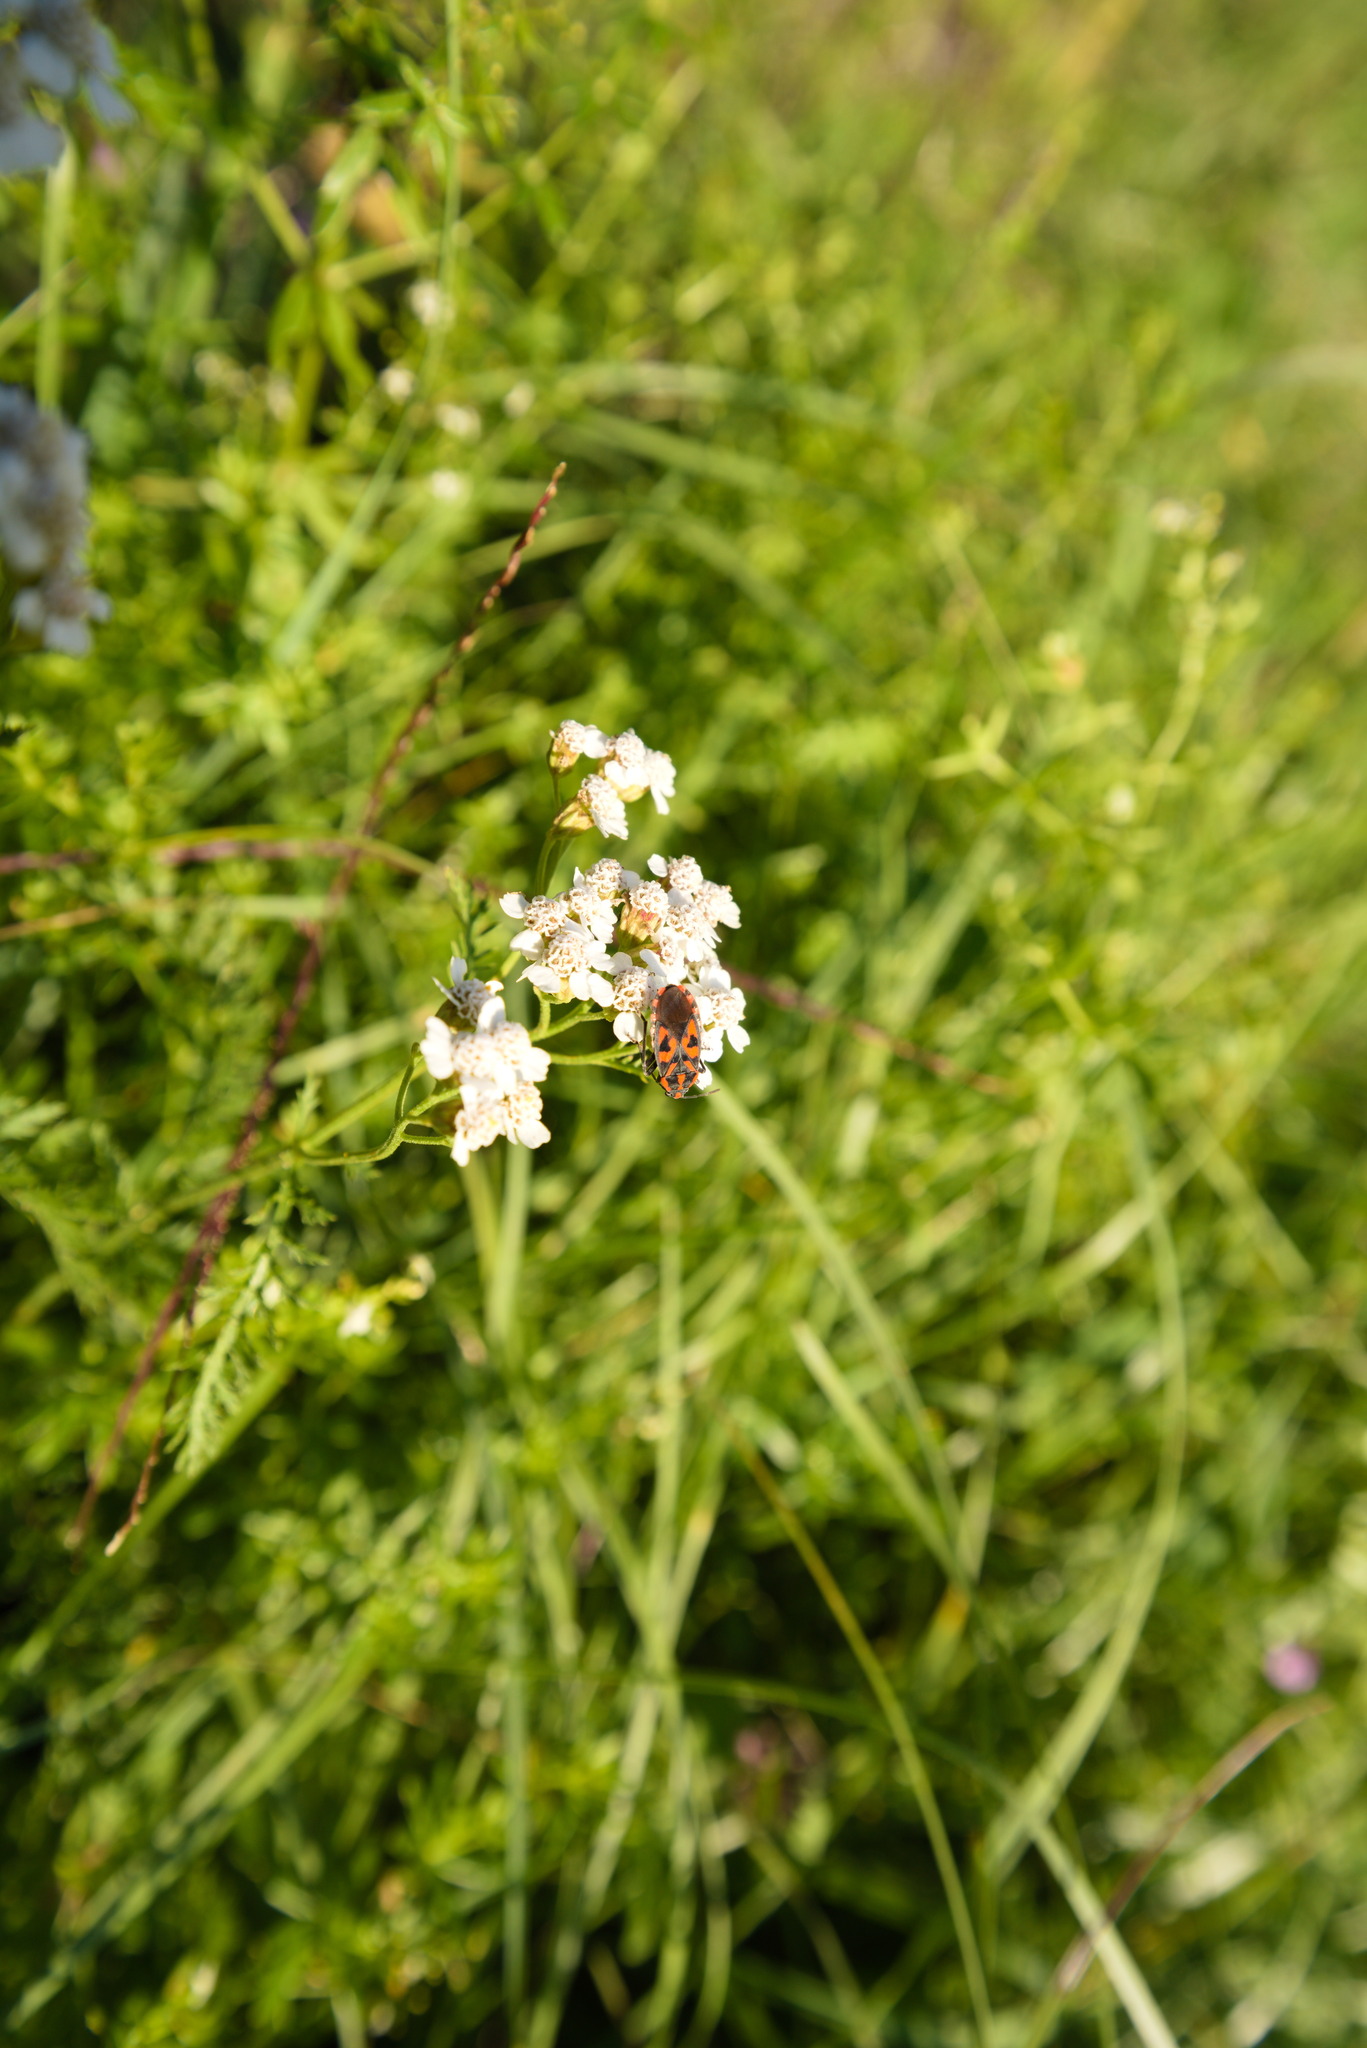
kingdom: Animalia
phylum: Arthropoda
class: Insecta
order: Hemiptera
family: Lygaeidae
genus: Spilostethus
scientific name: Spilostethus saxatilis
